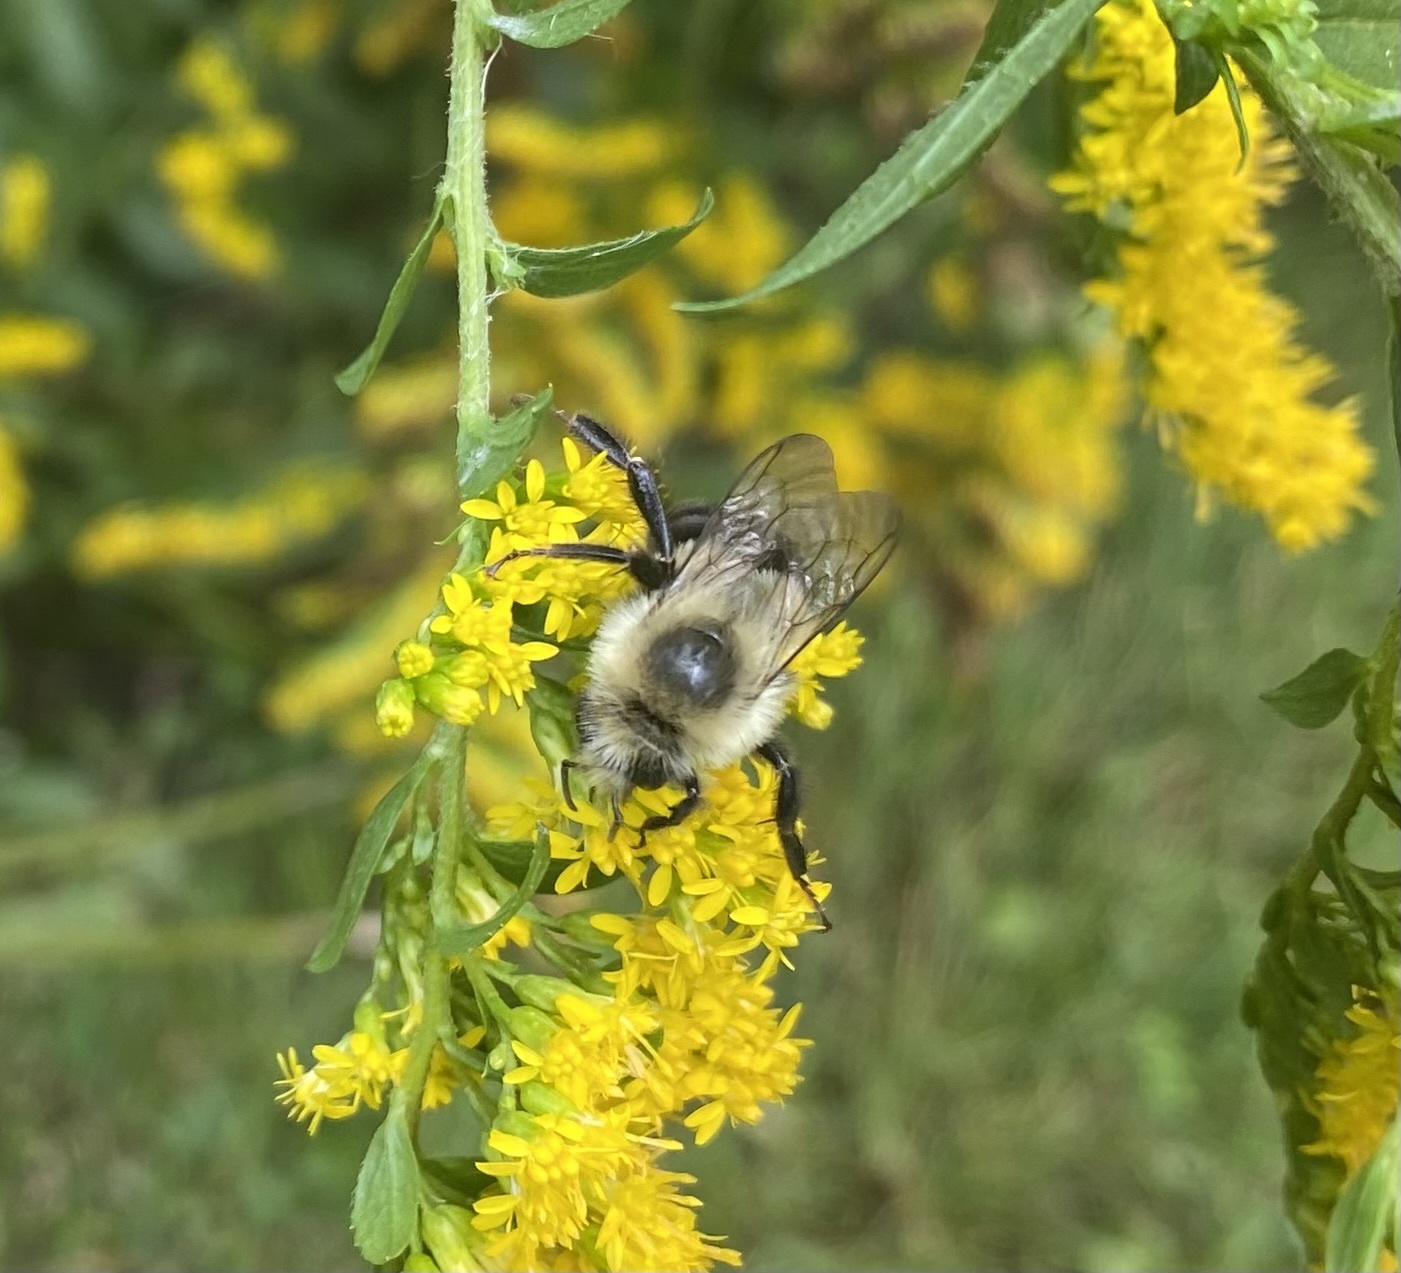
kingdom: Animalia
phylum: Arthropoda
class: Insecta
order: Hymenoptera
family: Apidae
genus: Bombus
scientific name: Bombus impatiens
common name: Common eastern bumble bee
